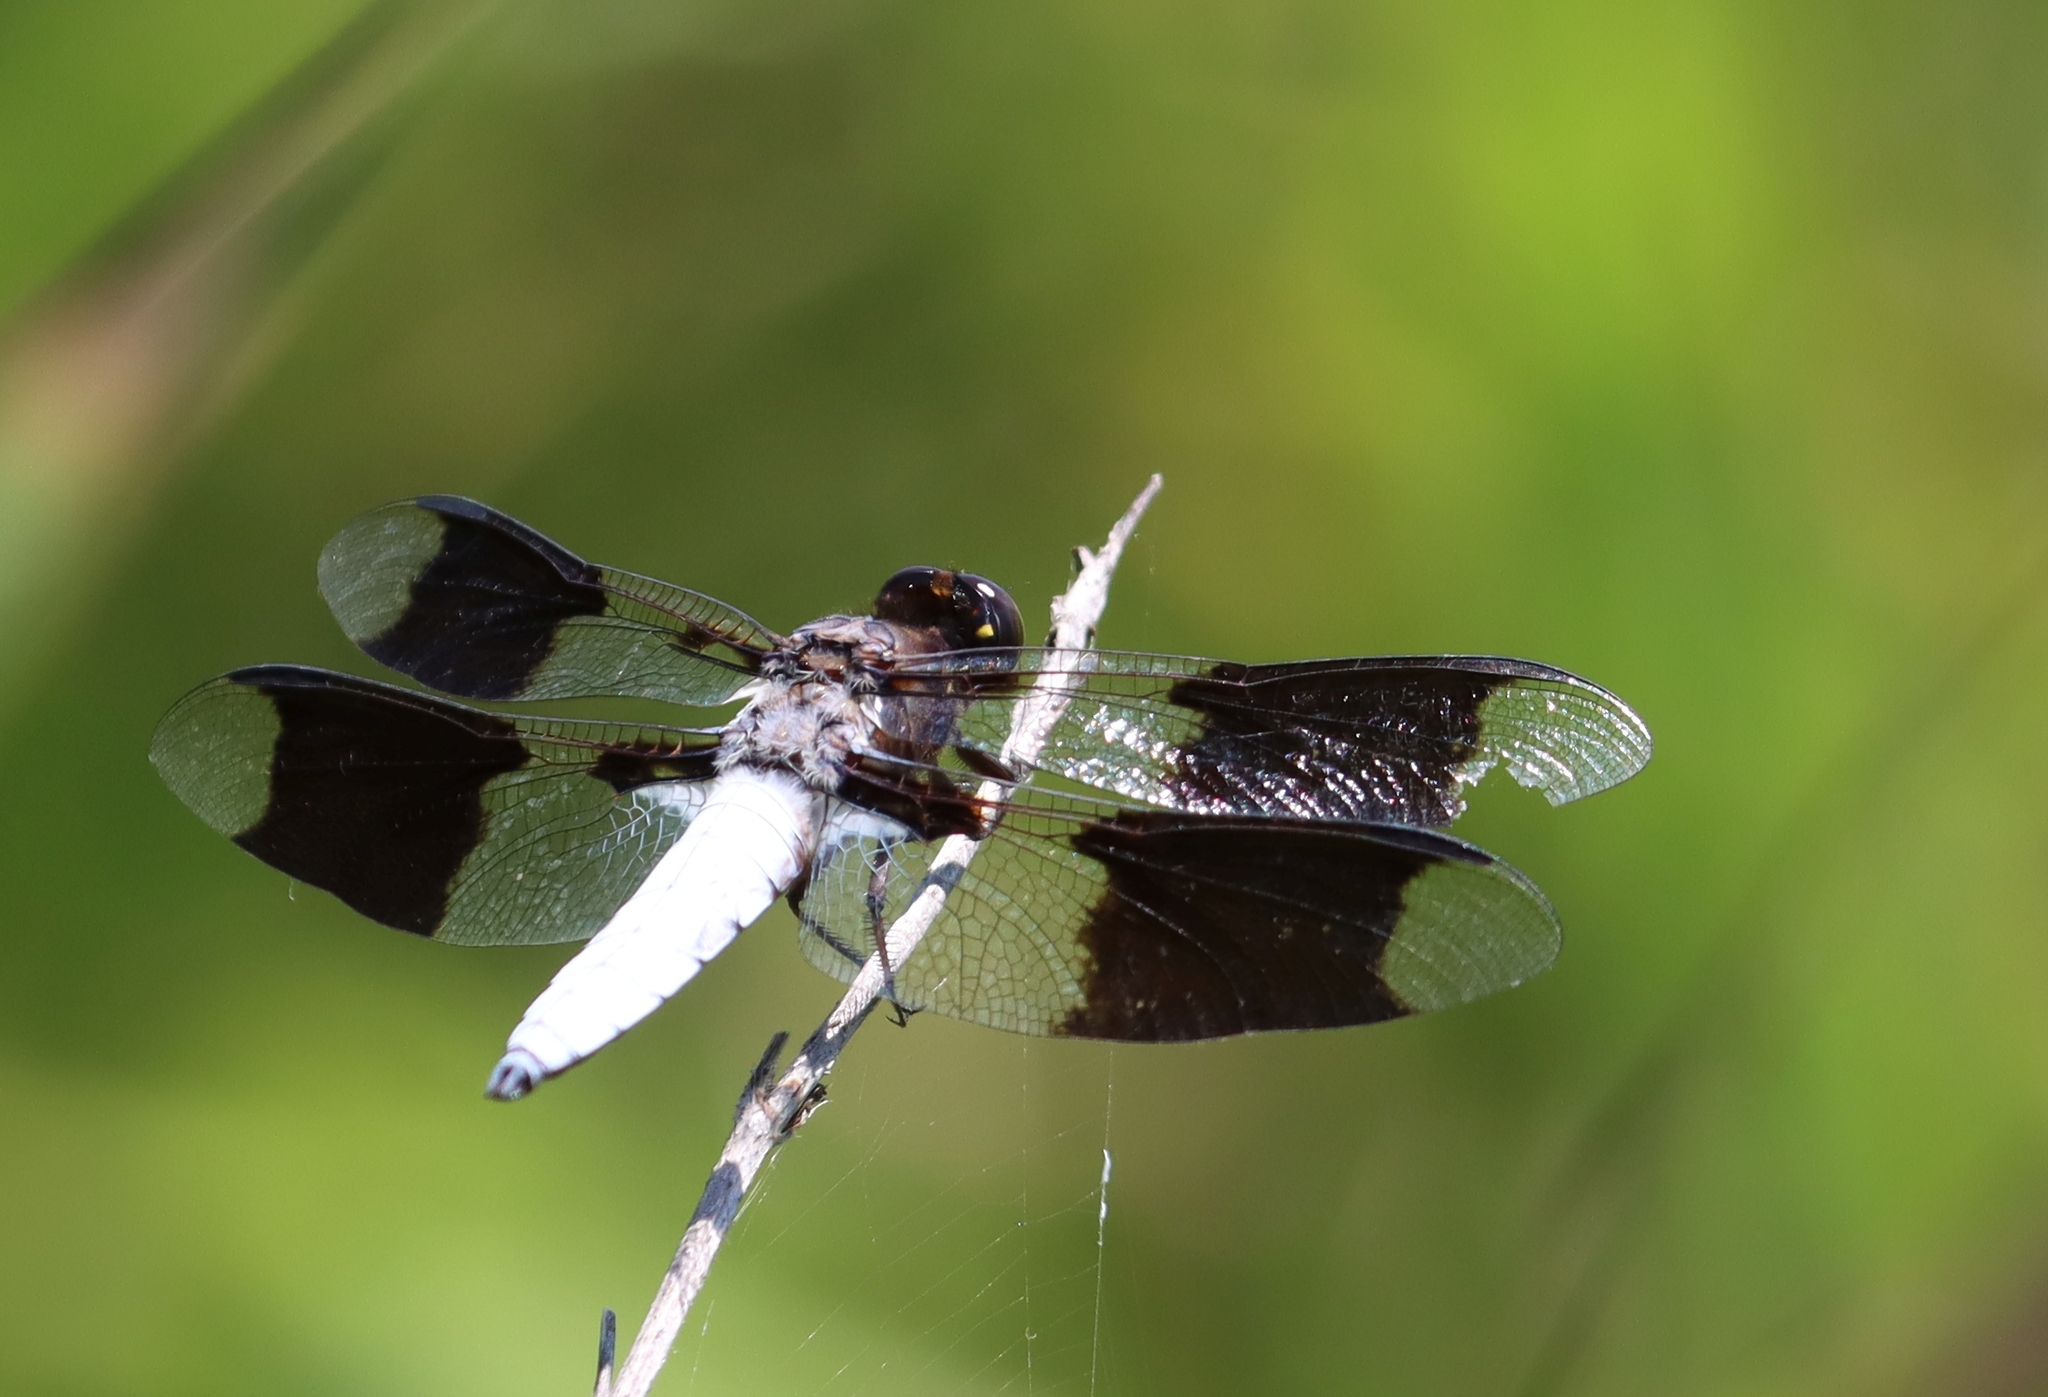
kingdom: Animalia
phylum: Arthropoda
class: Insecta
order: Odonata
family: Libellulidae
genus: Plathemis
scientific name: Plathemis lydia
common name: Common whitetail
